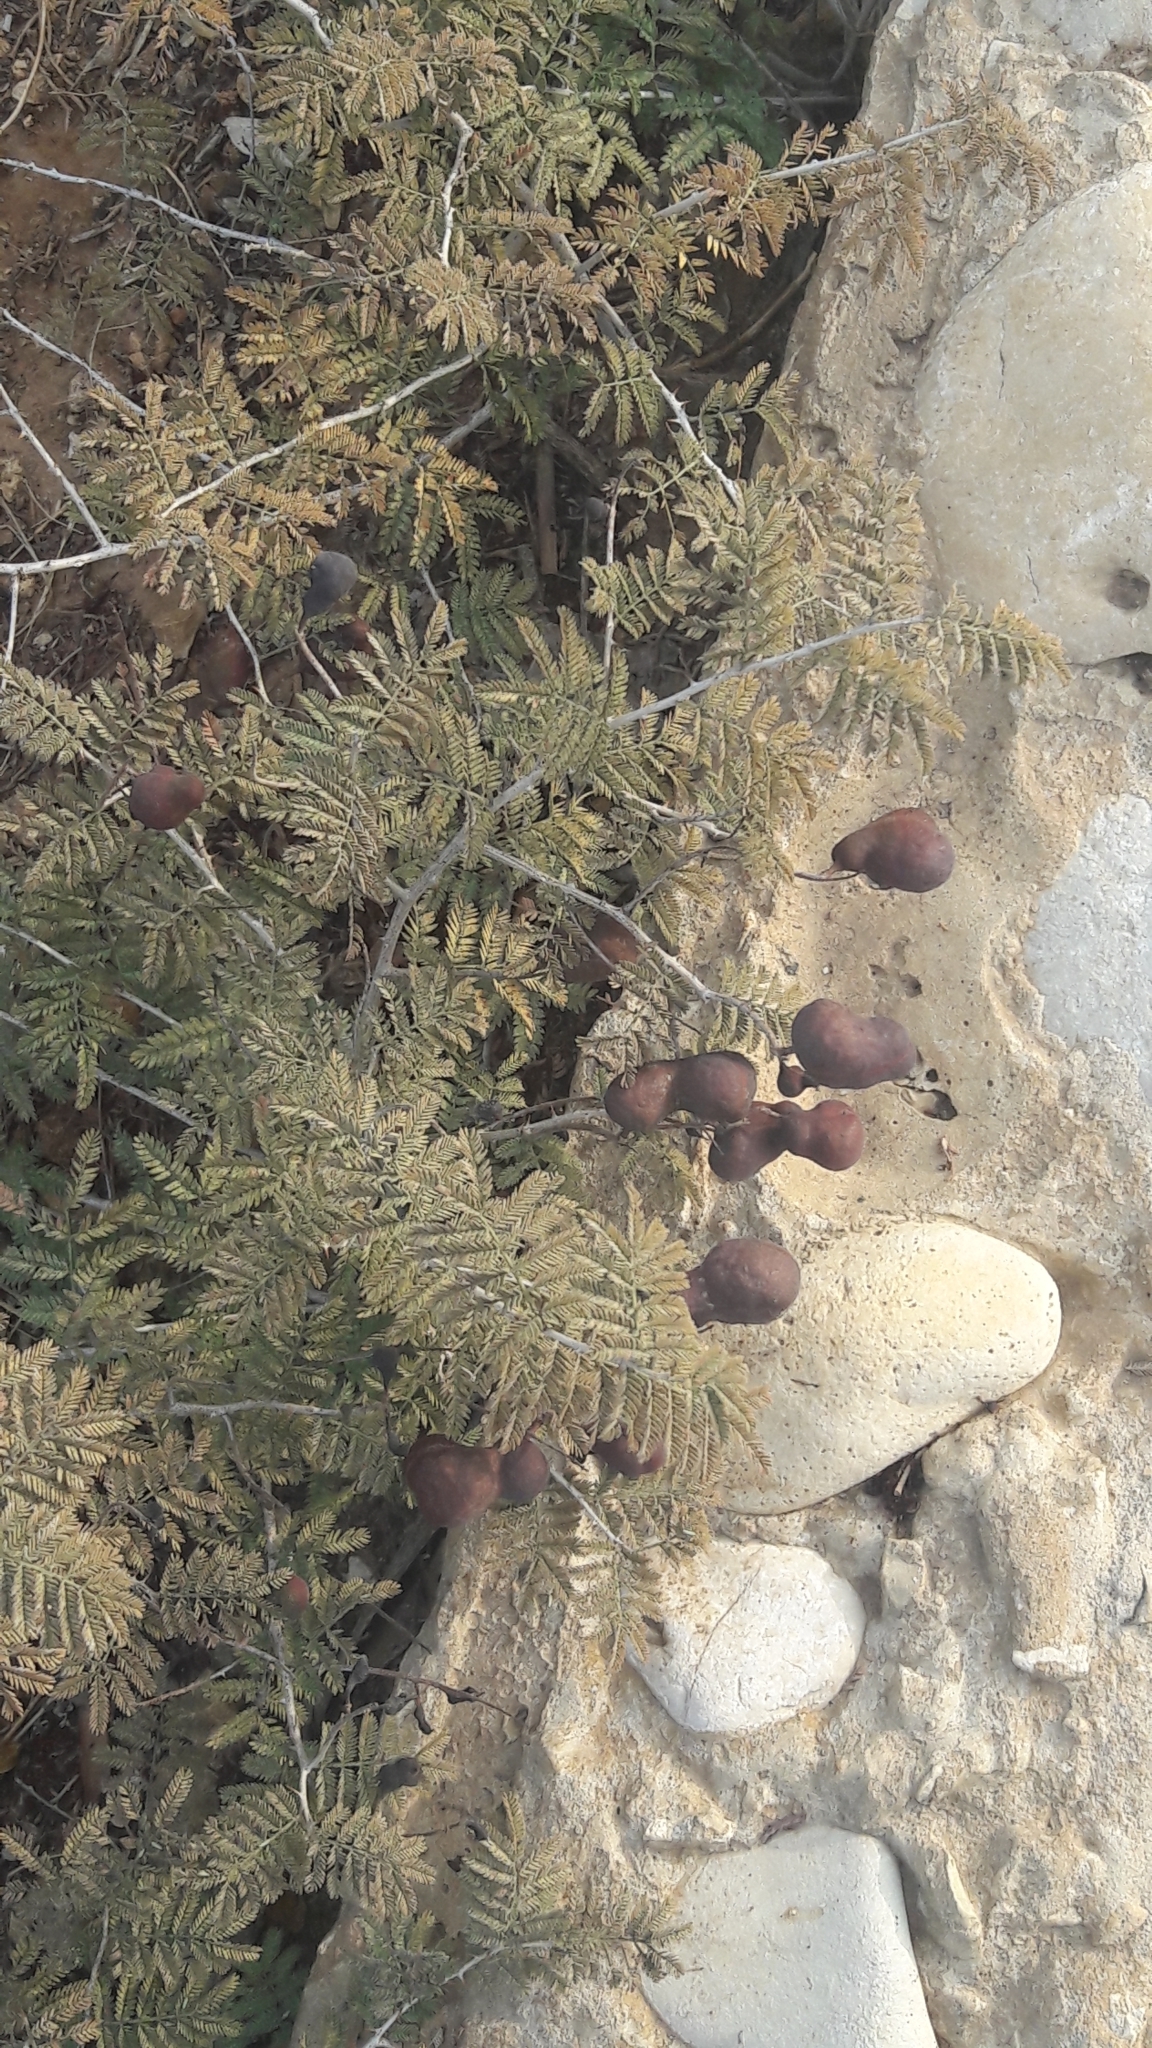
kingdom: Plantae
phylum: Tracheophyta
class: Magnoliopsida
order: Fabales
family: Fabaceae
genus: Prosopis
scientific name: Prosopis farcta
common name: Syrian mesquite
